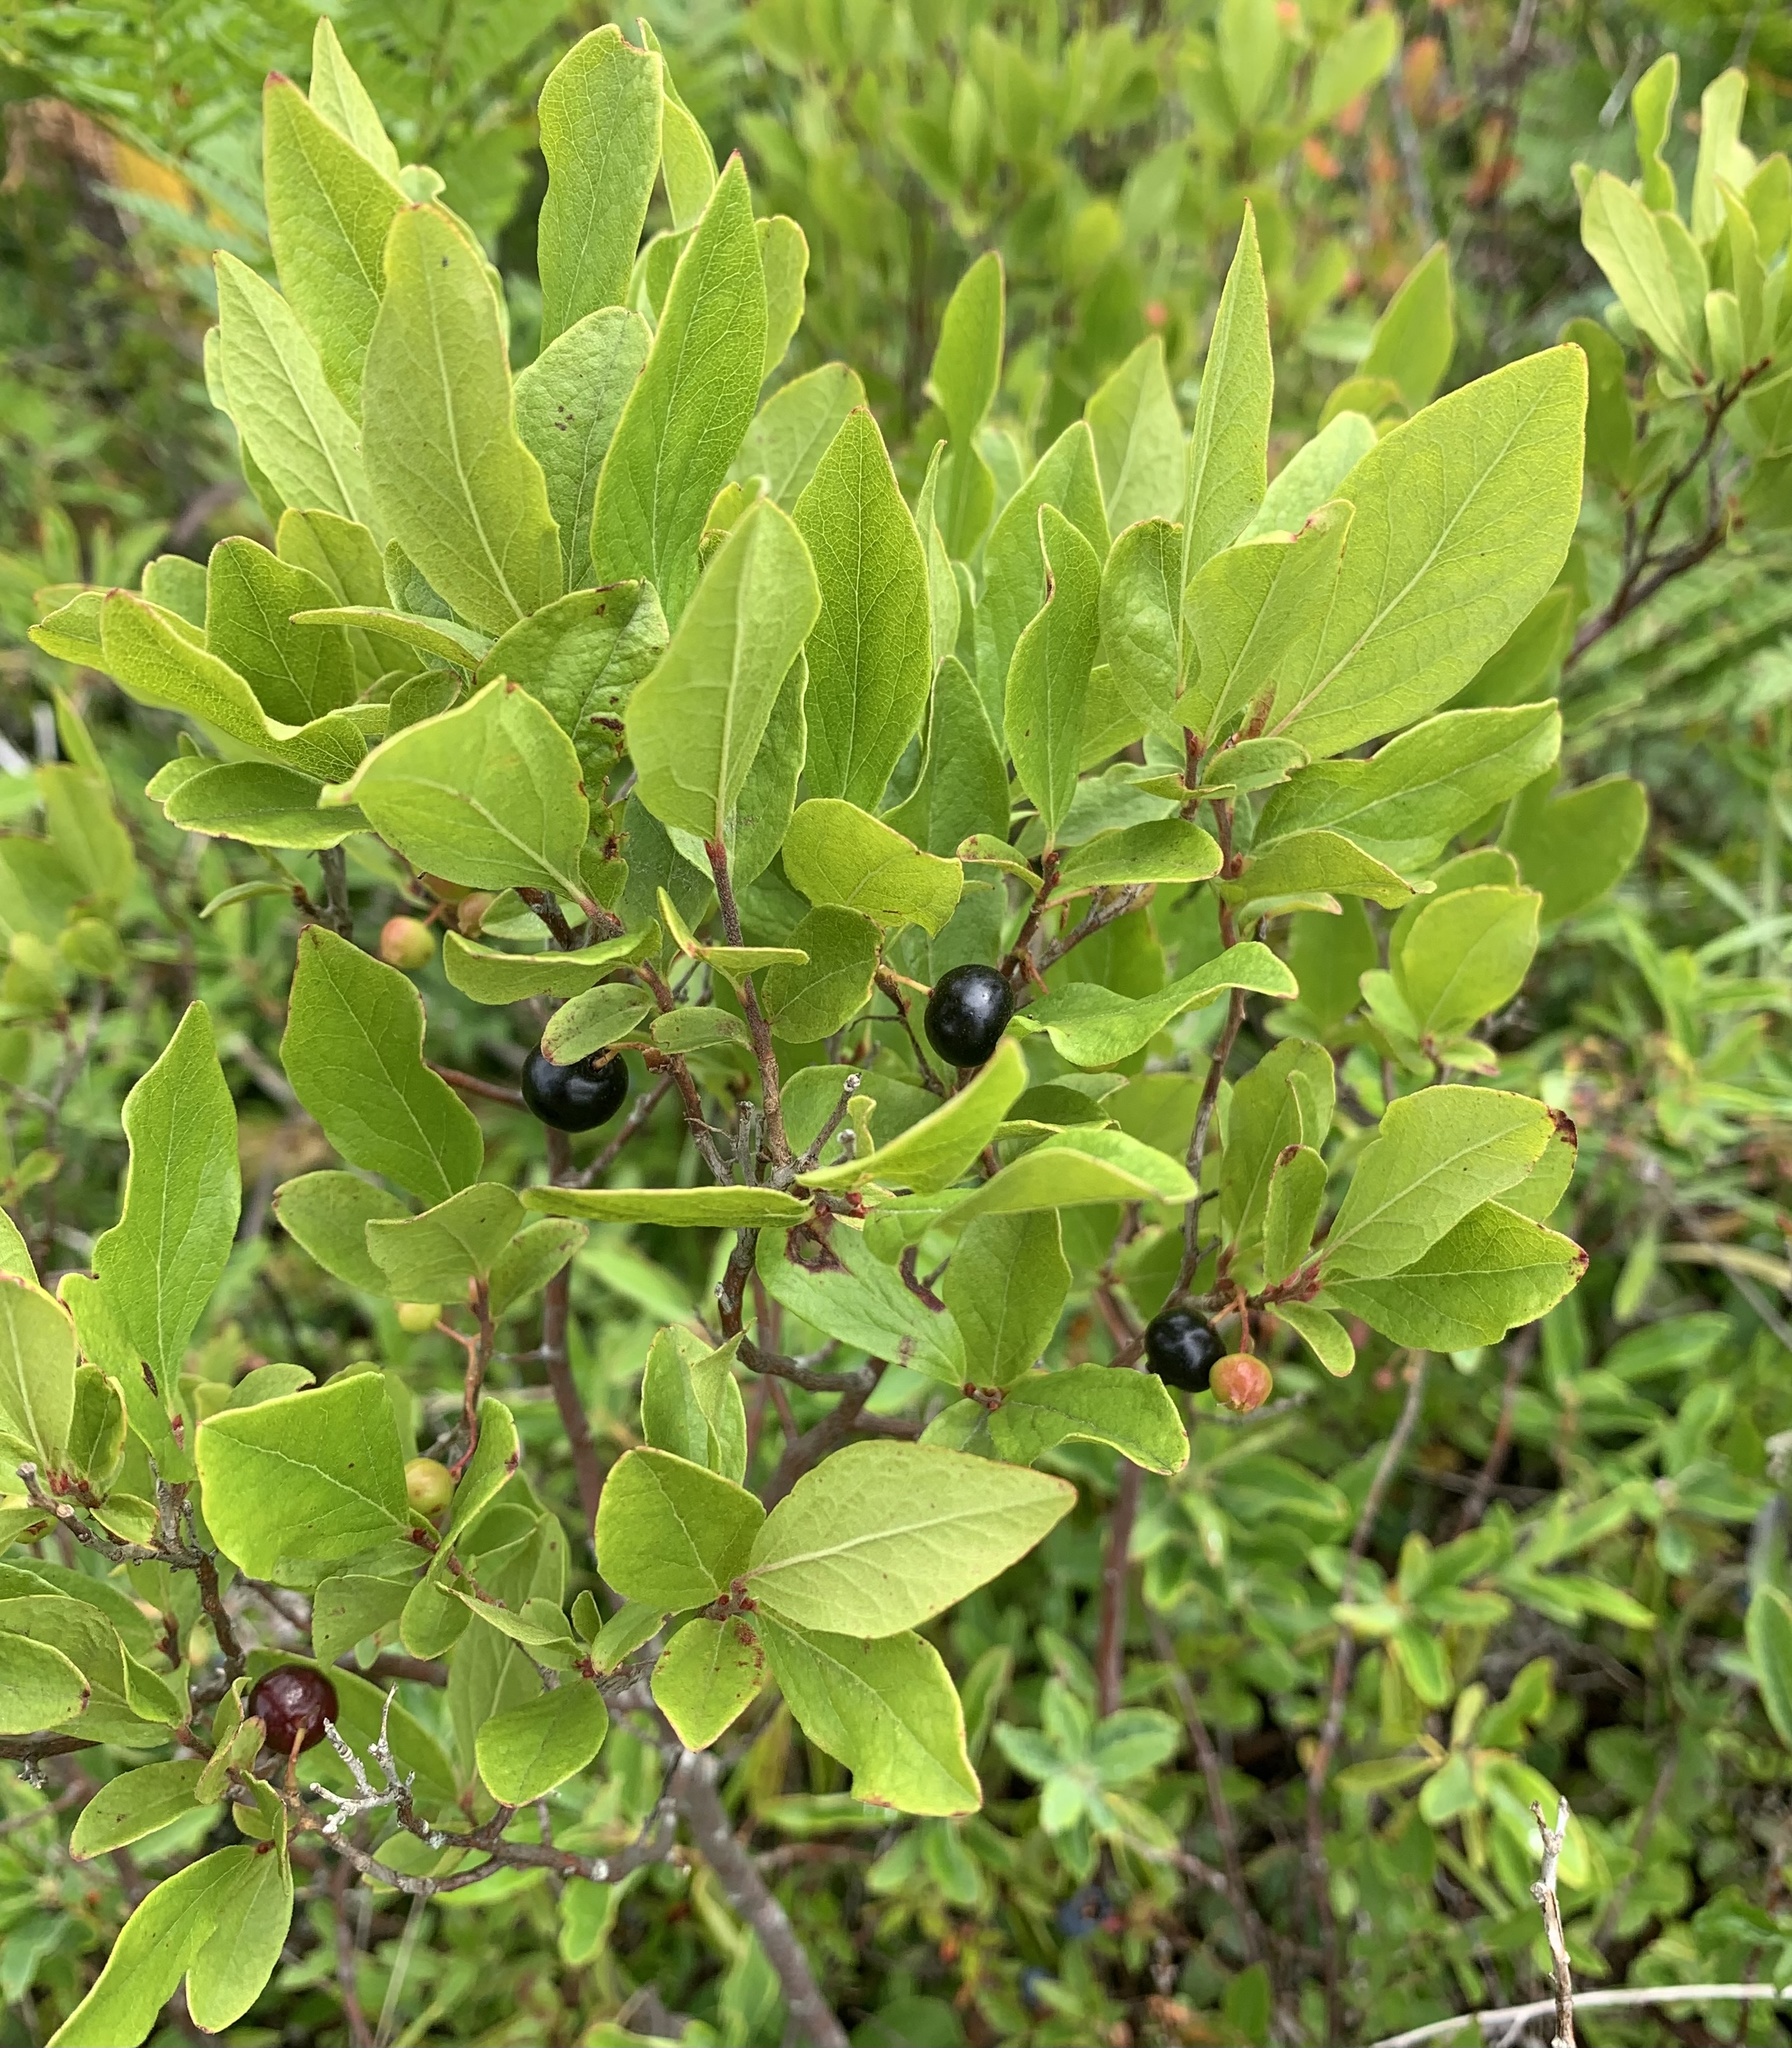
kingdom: Plantae
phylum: Tracheophyta
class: Magnoliopsida
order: Ericales
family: Ericaceae
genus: Gaylussacia
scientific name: Gaylussacia baccata
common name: Black huckleberry
